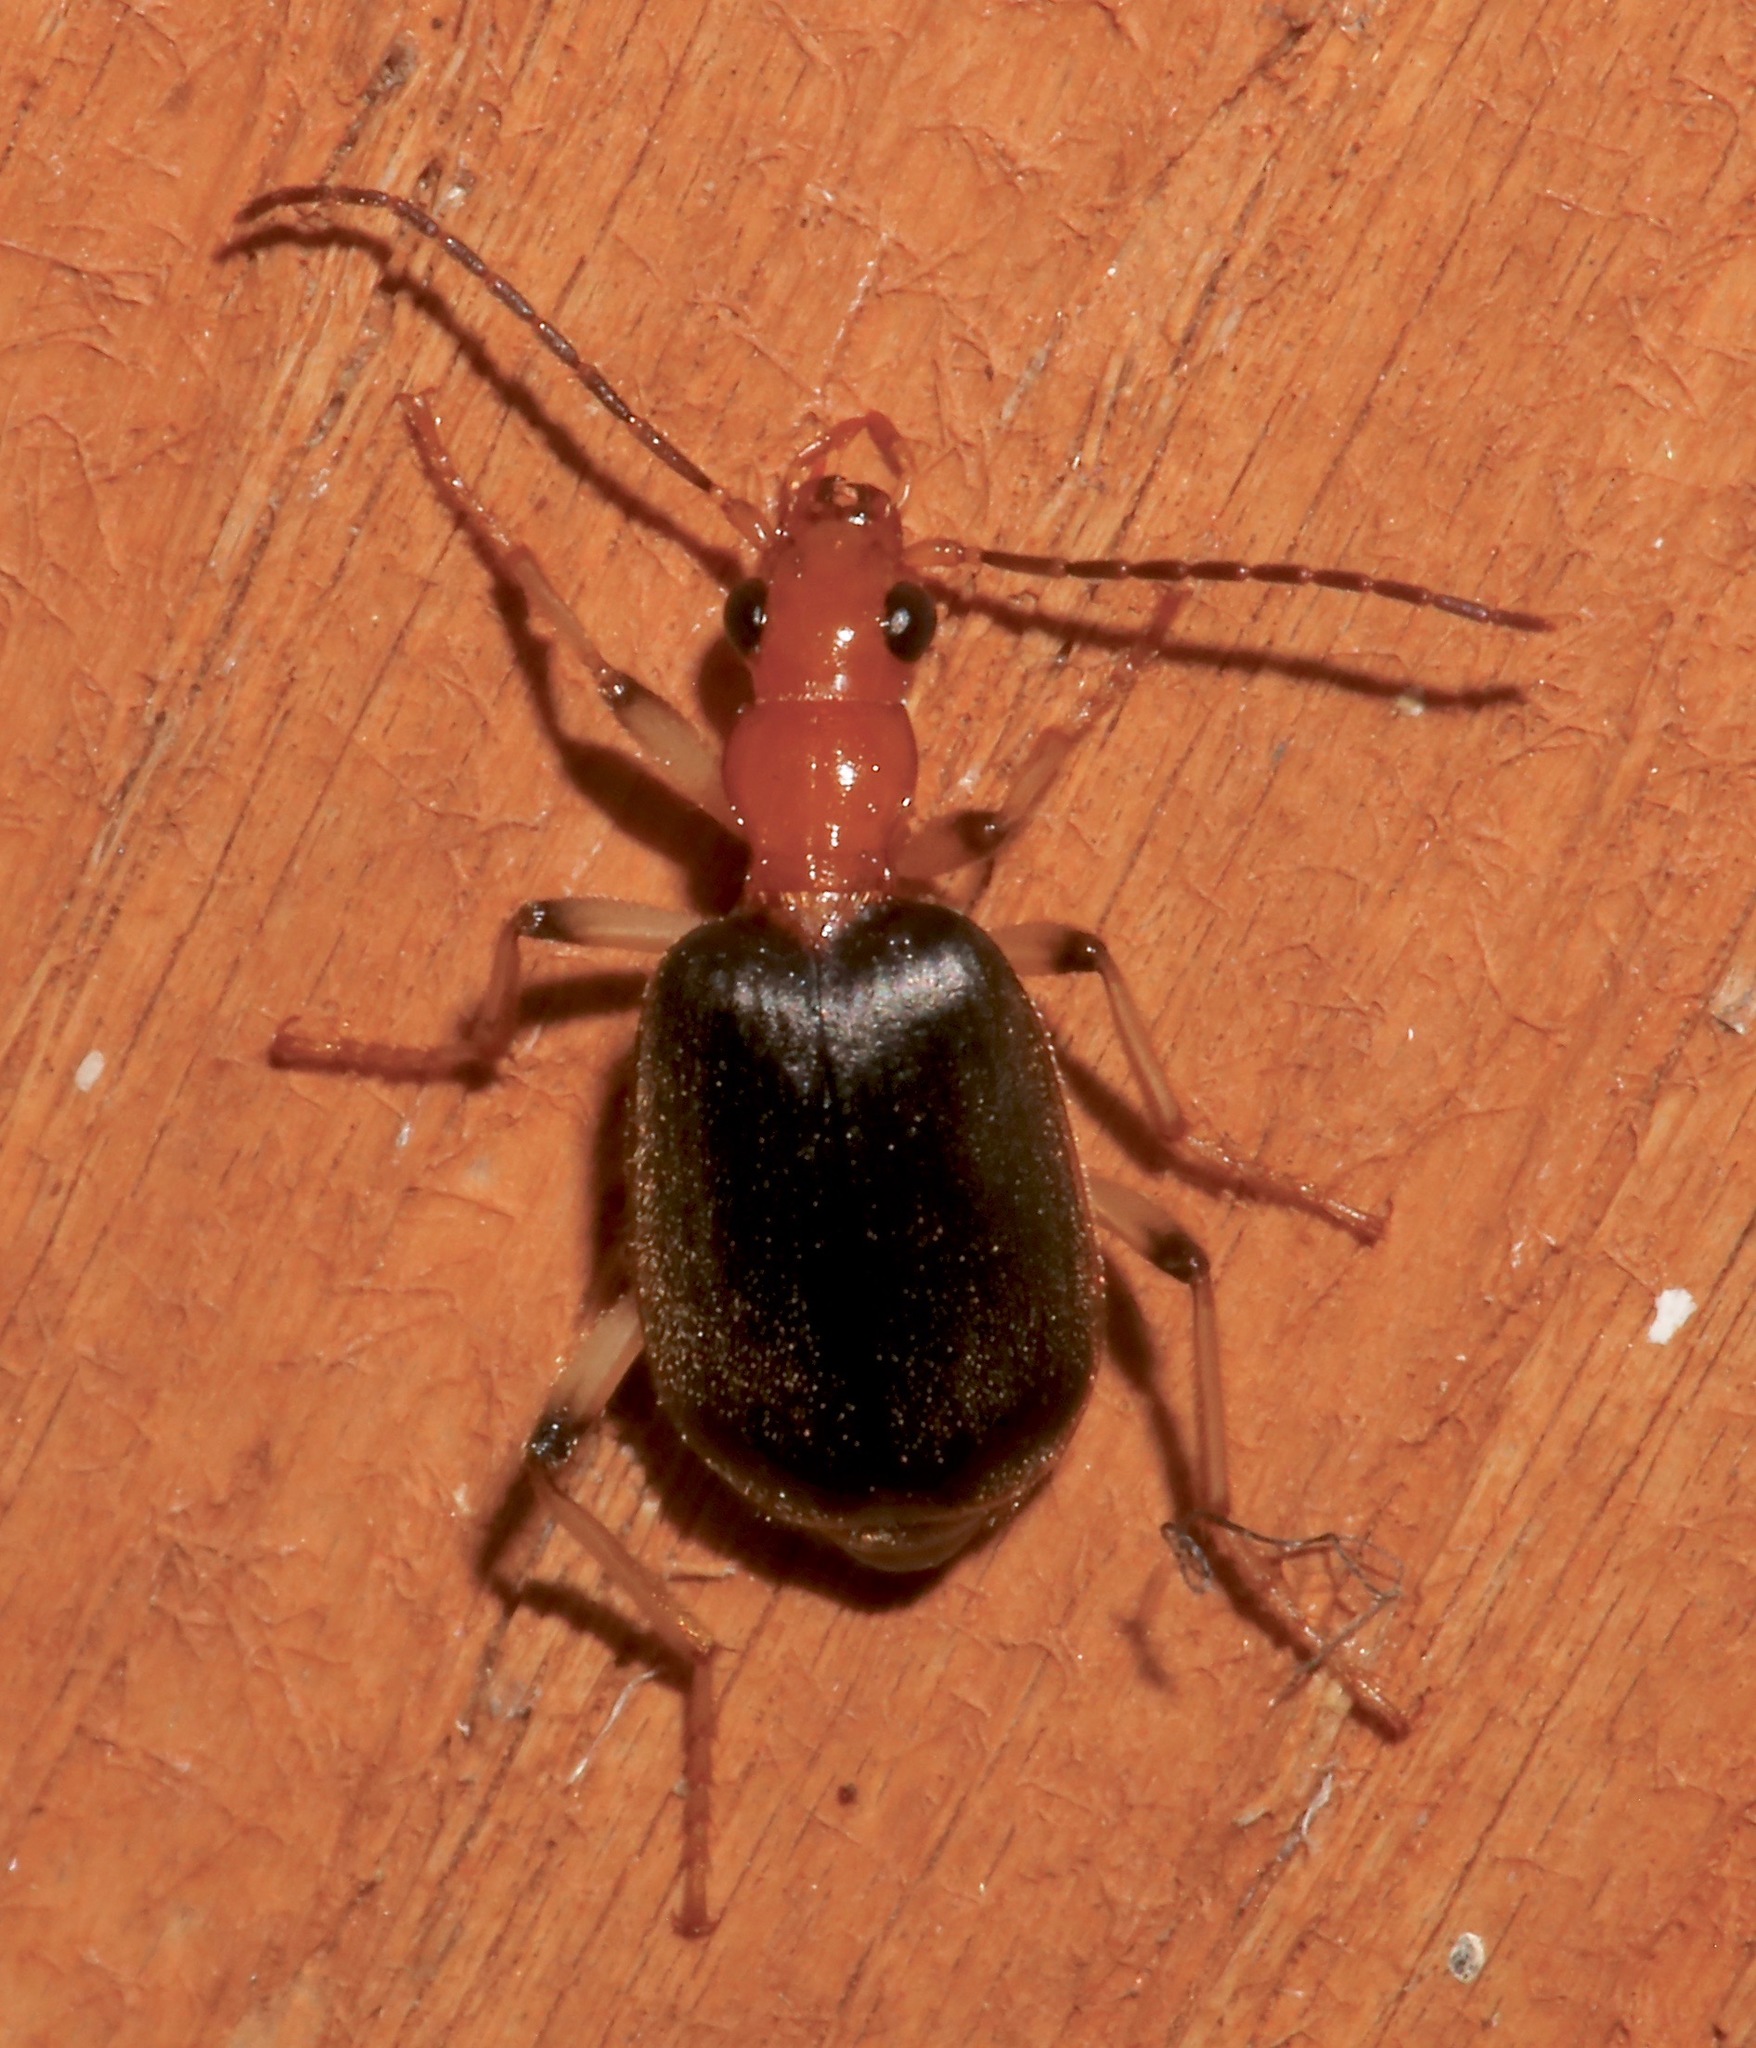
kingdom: Animalia
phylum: Arthropoda
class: Insecta
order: Coleoptera
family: Carabidae
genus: Brachinus
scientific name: Brachinus adustipennis
